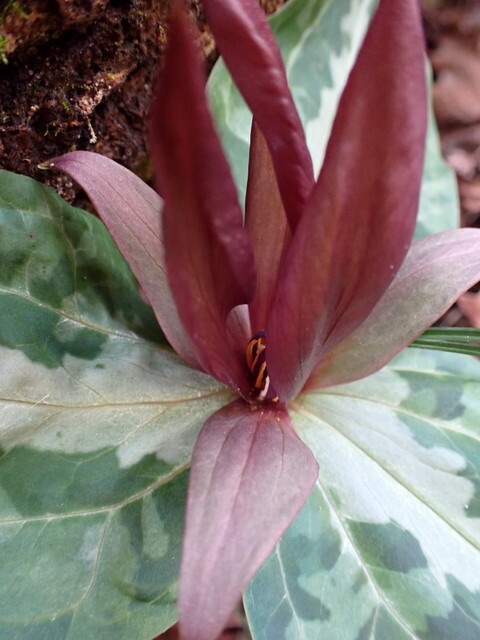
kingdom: Plantae
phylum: Tracheophyta
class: Liliopsida
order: Liliales
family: Melanthiaceae
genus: Trillium
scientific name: Trillium underwoodii
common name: Longbract wakerobin
